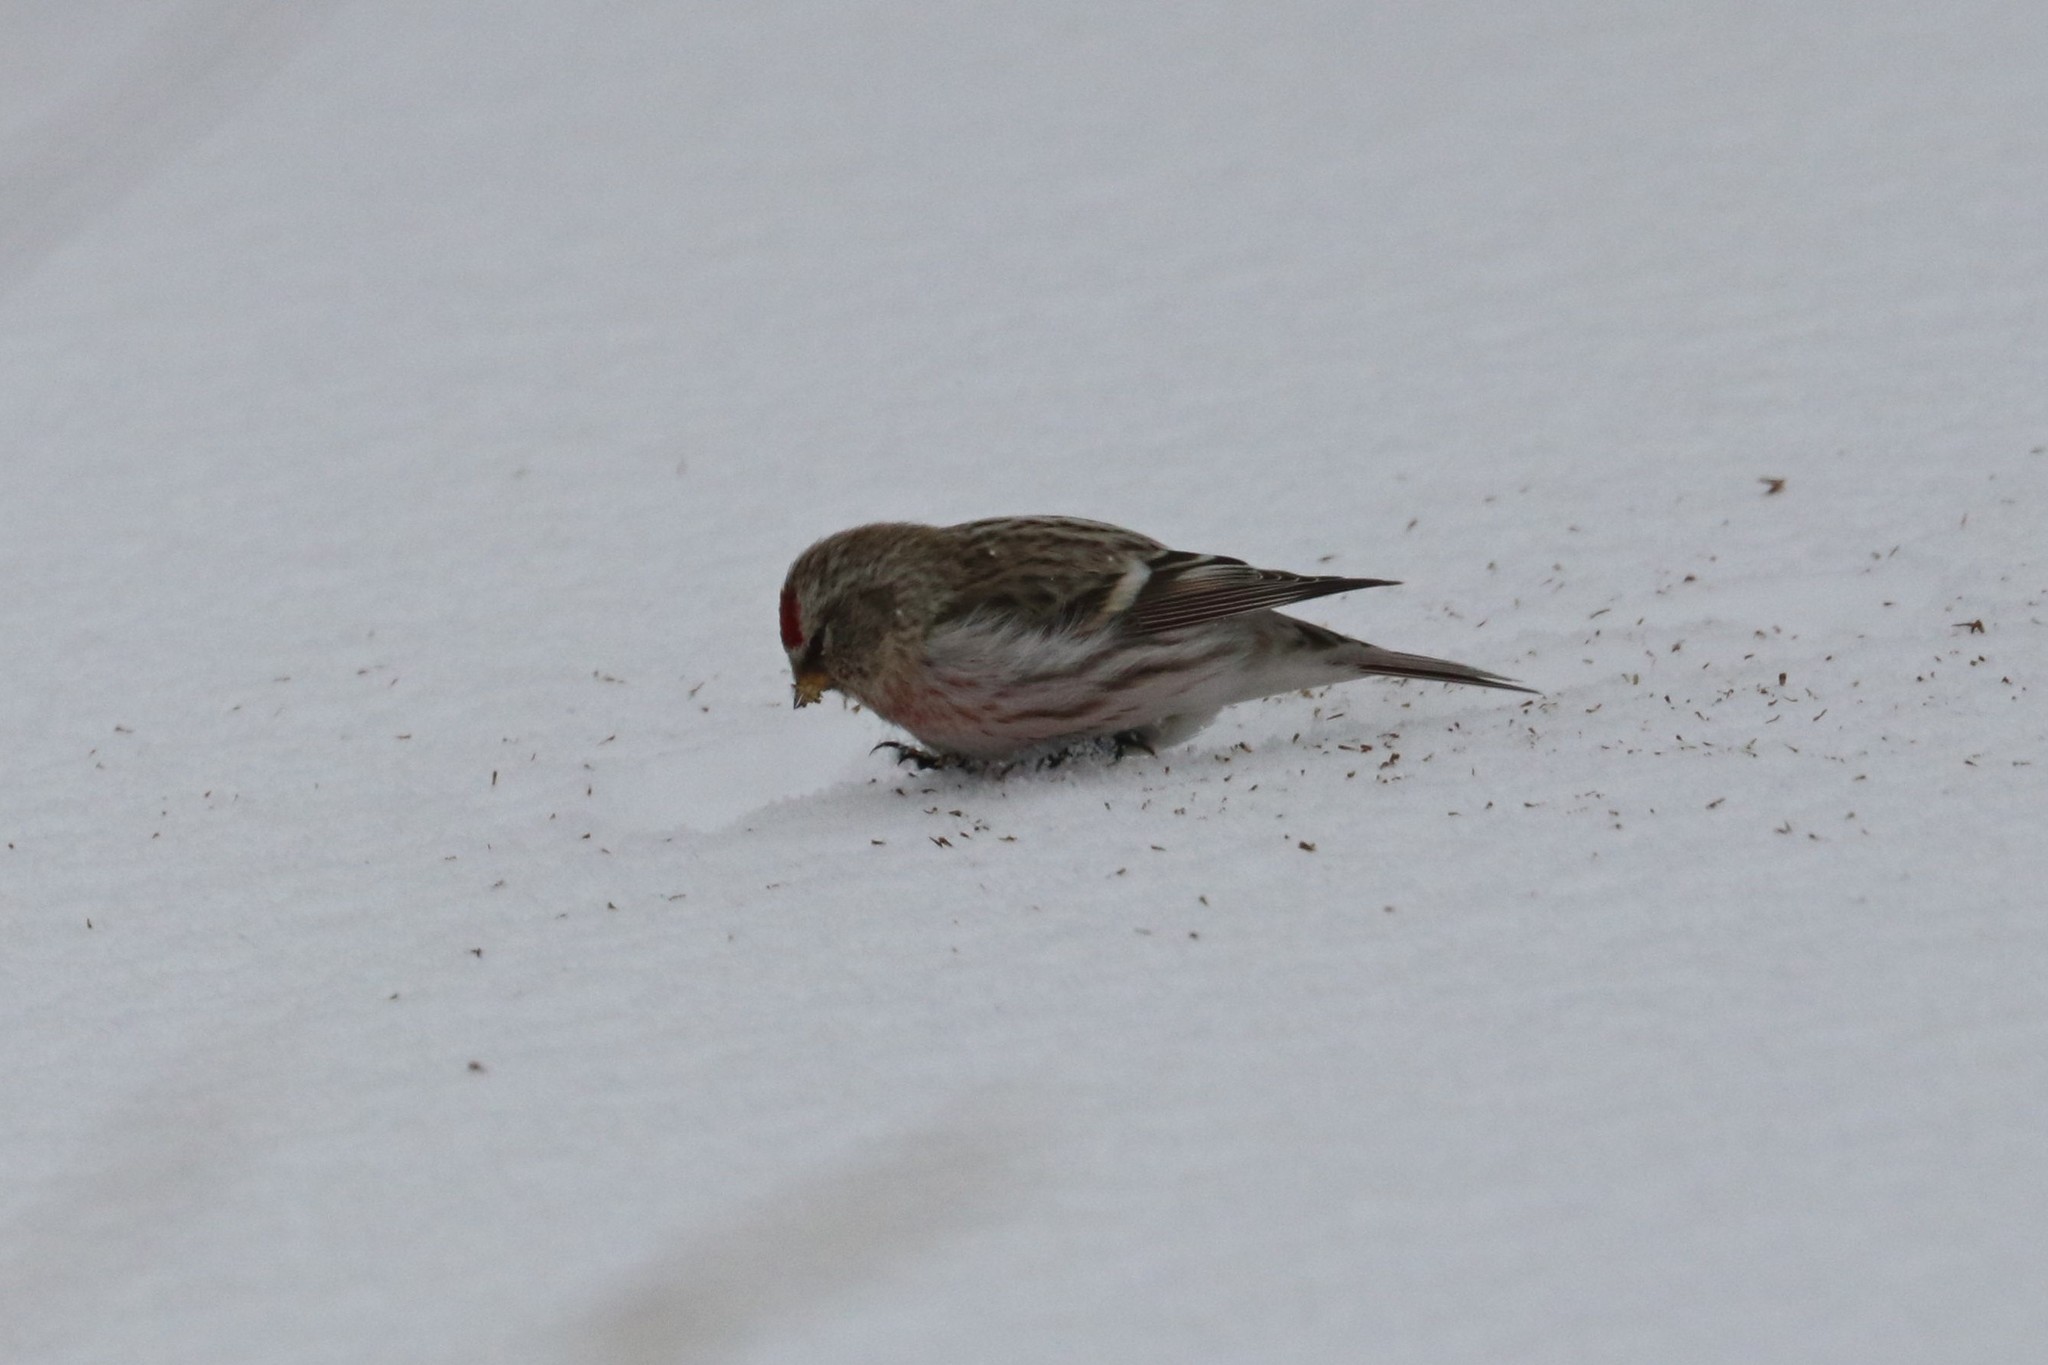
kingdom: Animalia
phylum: Chordata
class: Aves
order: Passeriformes
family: Fringillidae
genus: Acanthis
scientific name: Acanthis flammea
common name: Common redpoll
